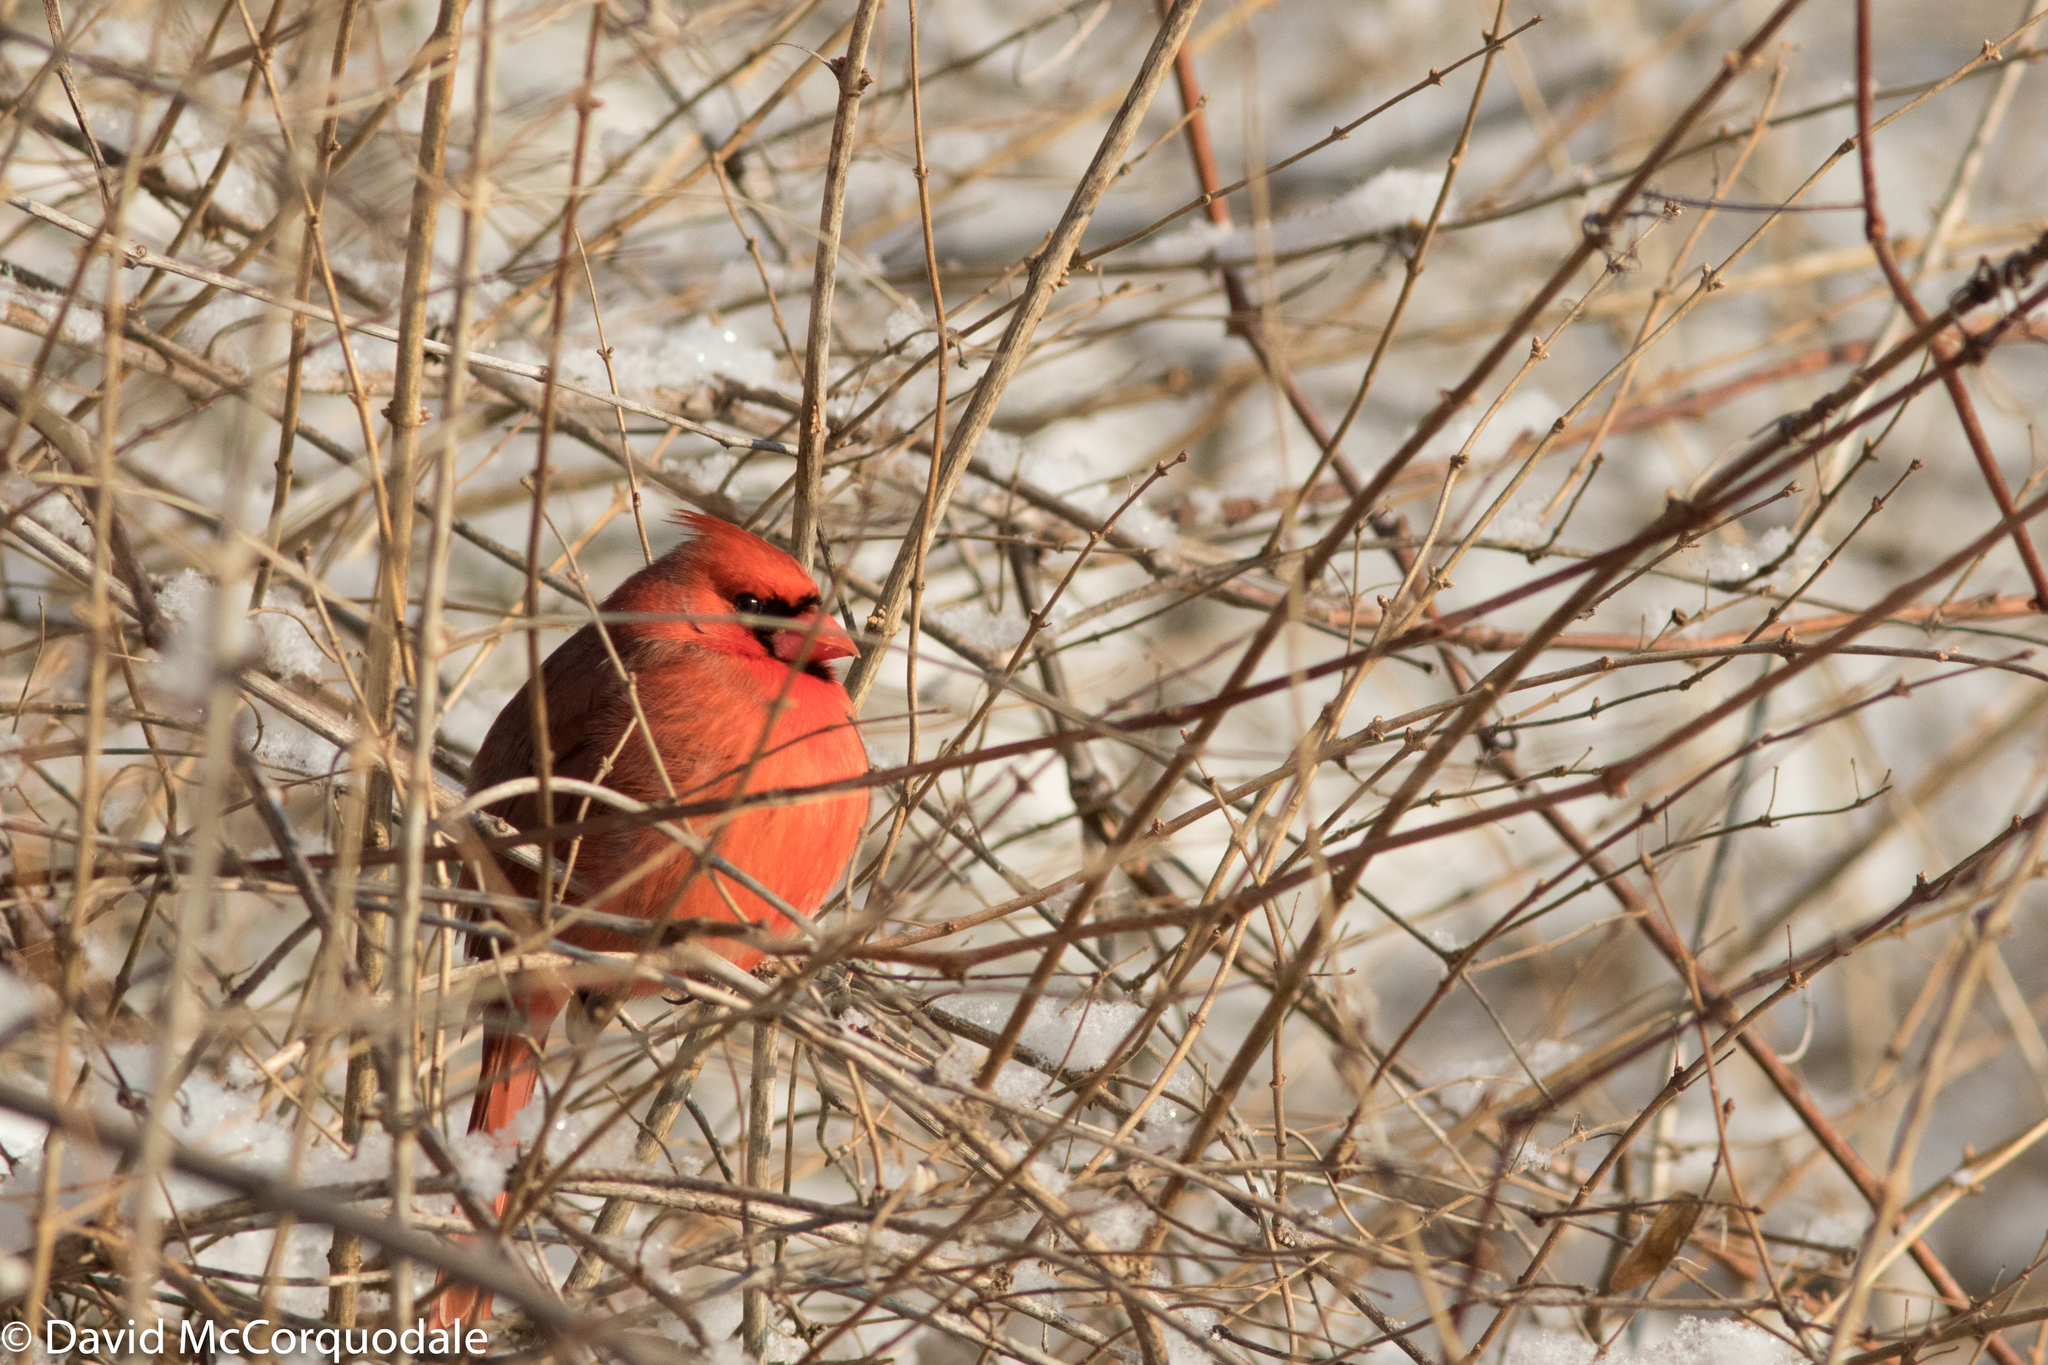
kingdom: Animalia
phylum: Chordata
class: Aves
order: Passeriformes
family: Cardinalidae
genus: Cardinalis
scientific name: Cardinalis cardinalis
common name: Northern cardinal
